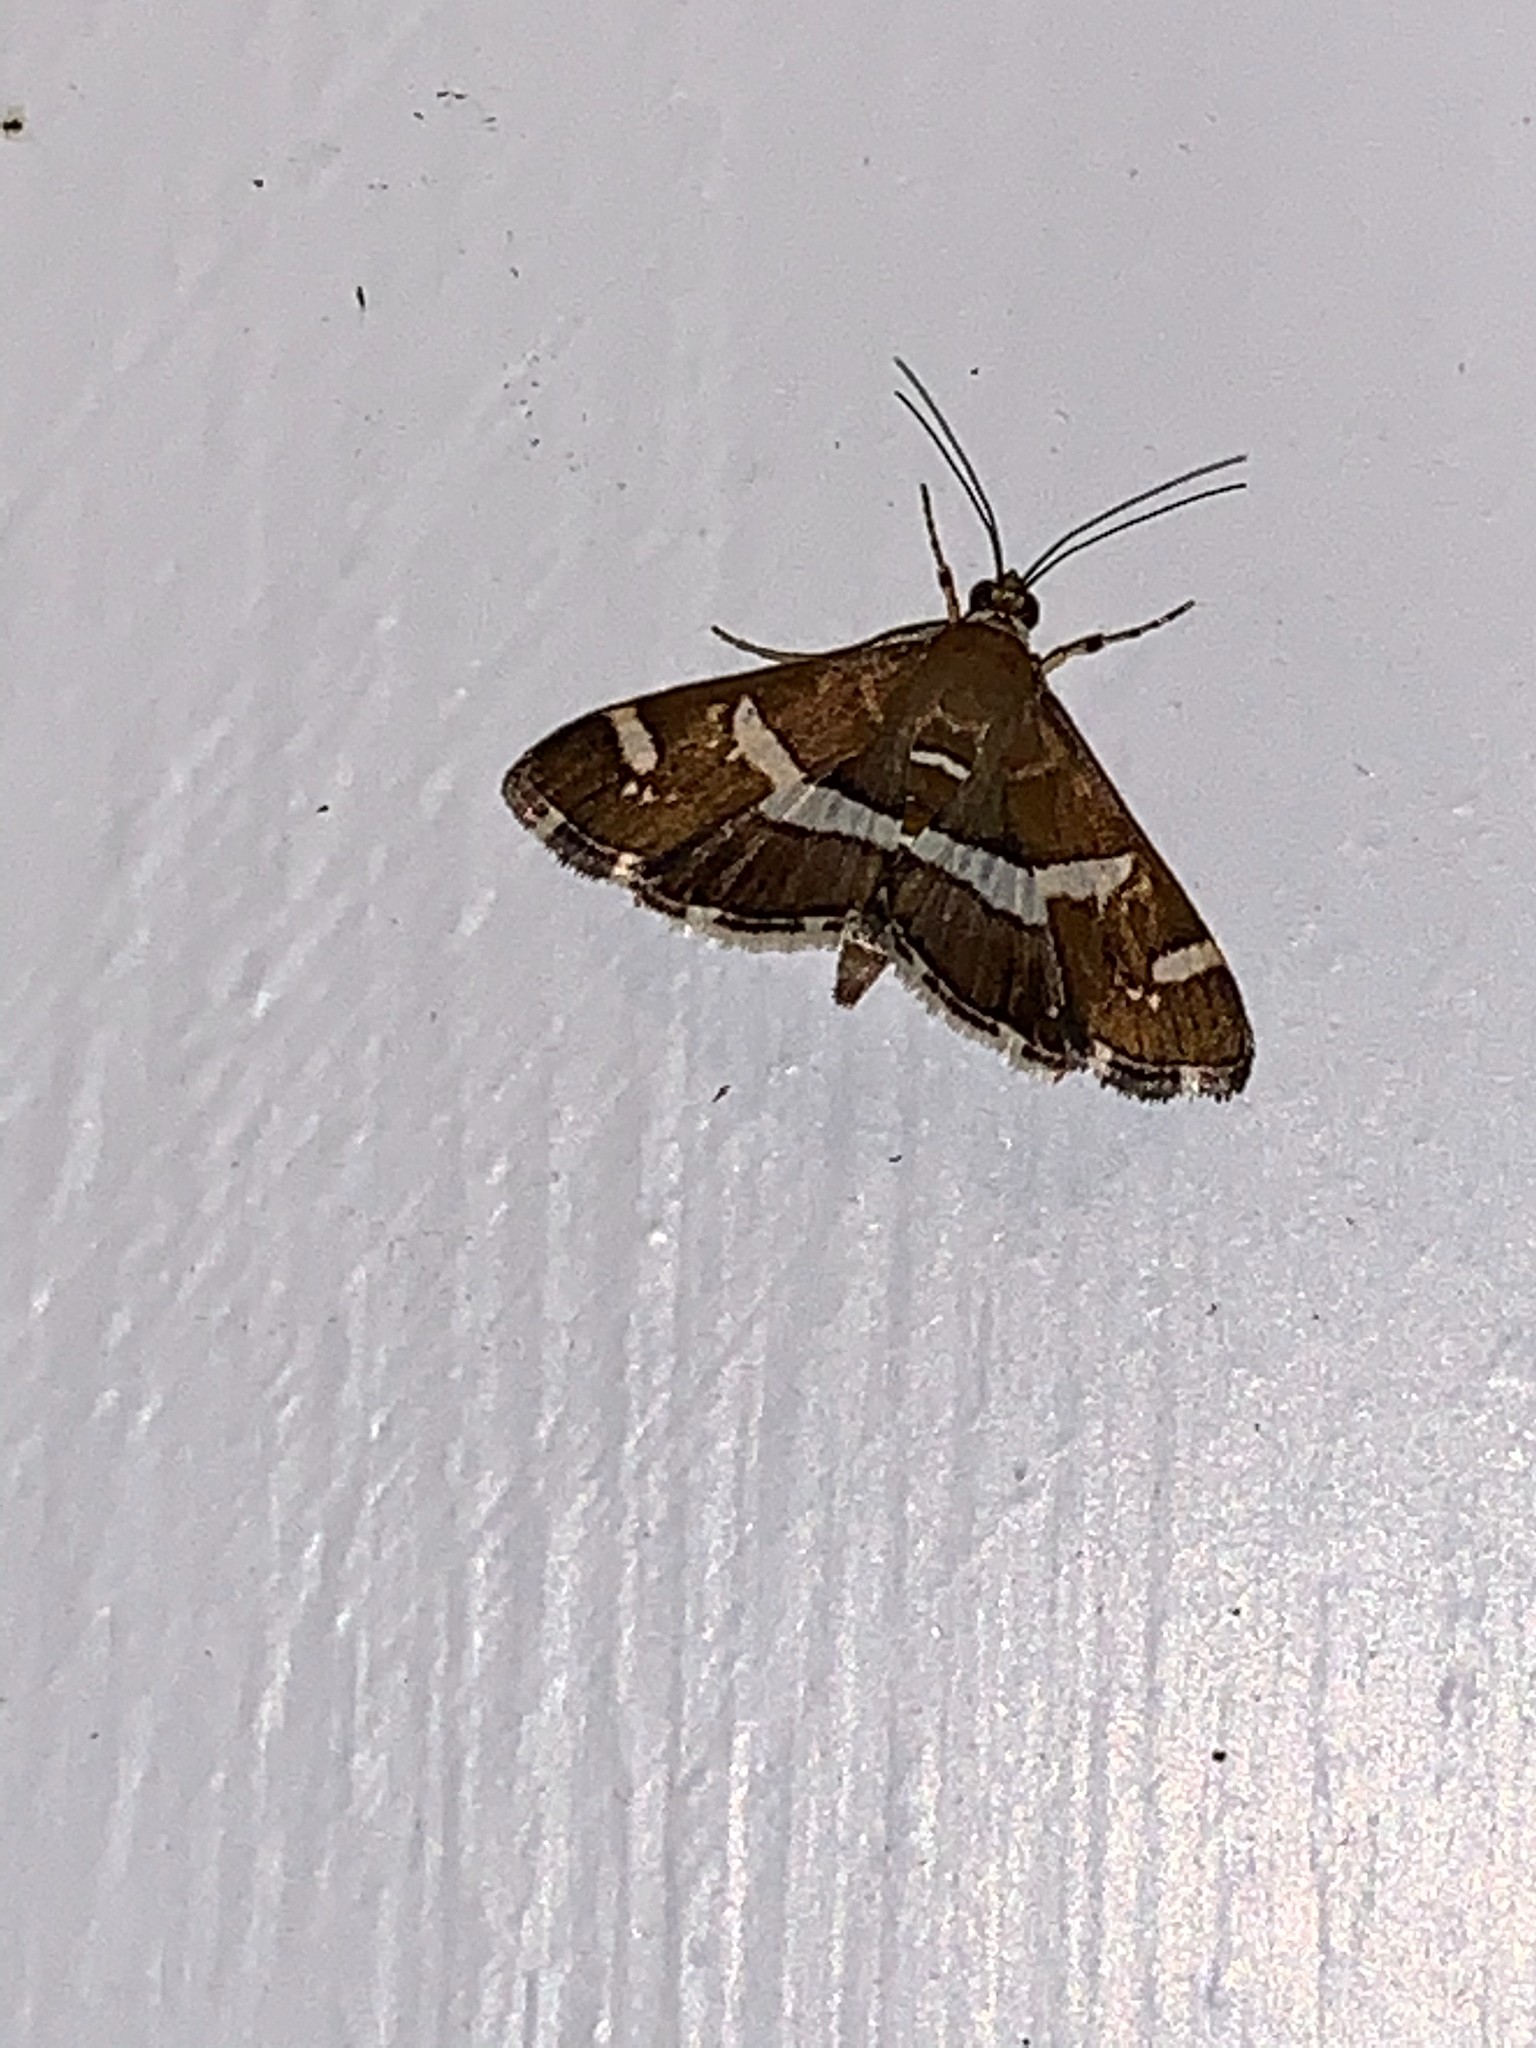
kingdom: Animalia
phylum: Arthropoda
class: Insecta
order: Lepidoptera
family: Crambidae
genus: Spoladea
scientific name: Spoladea recurvalis
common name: Beet webworm moth
